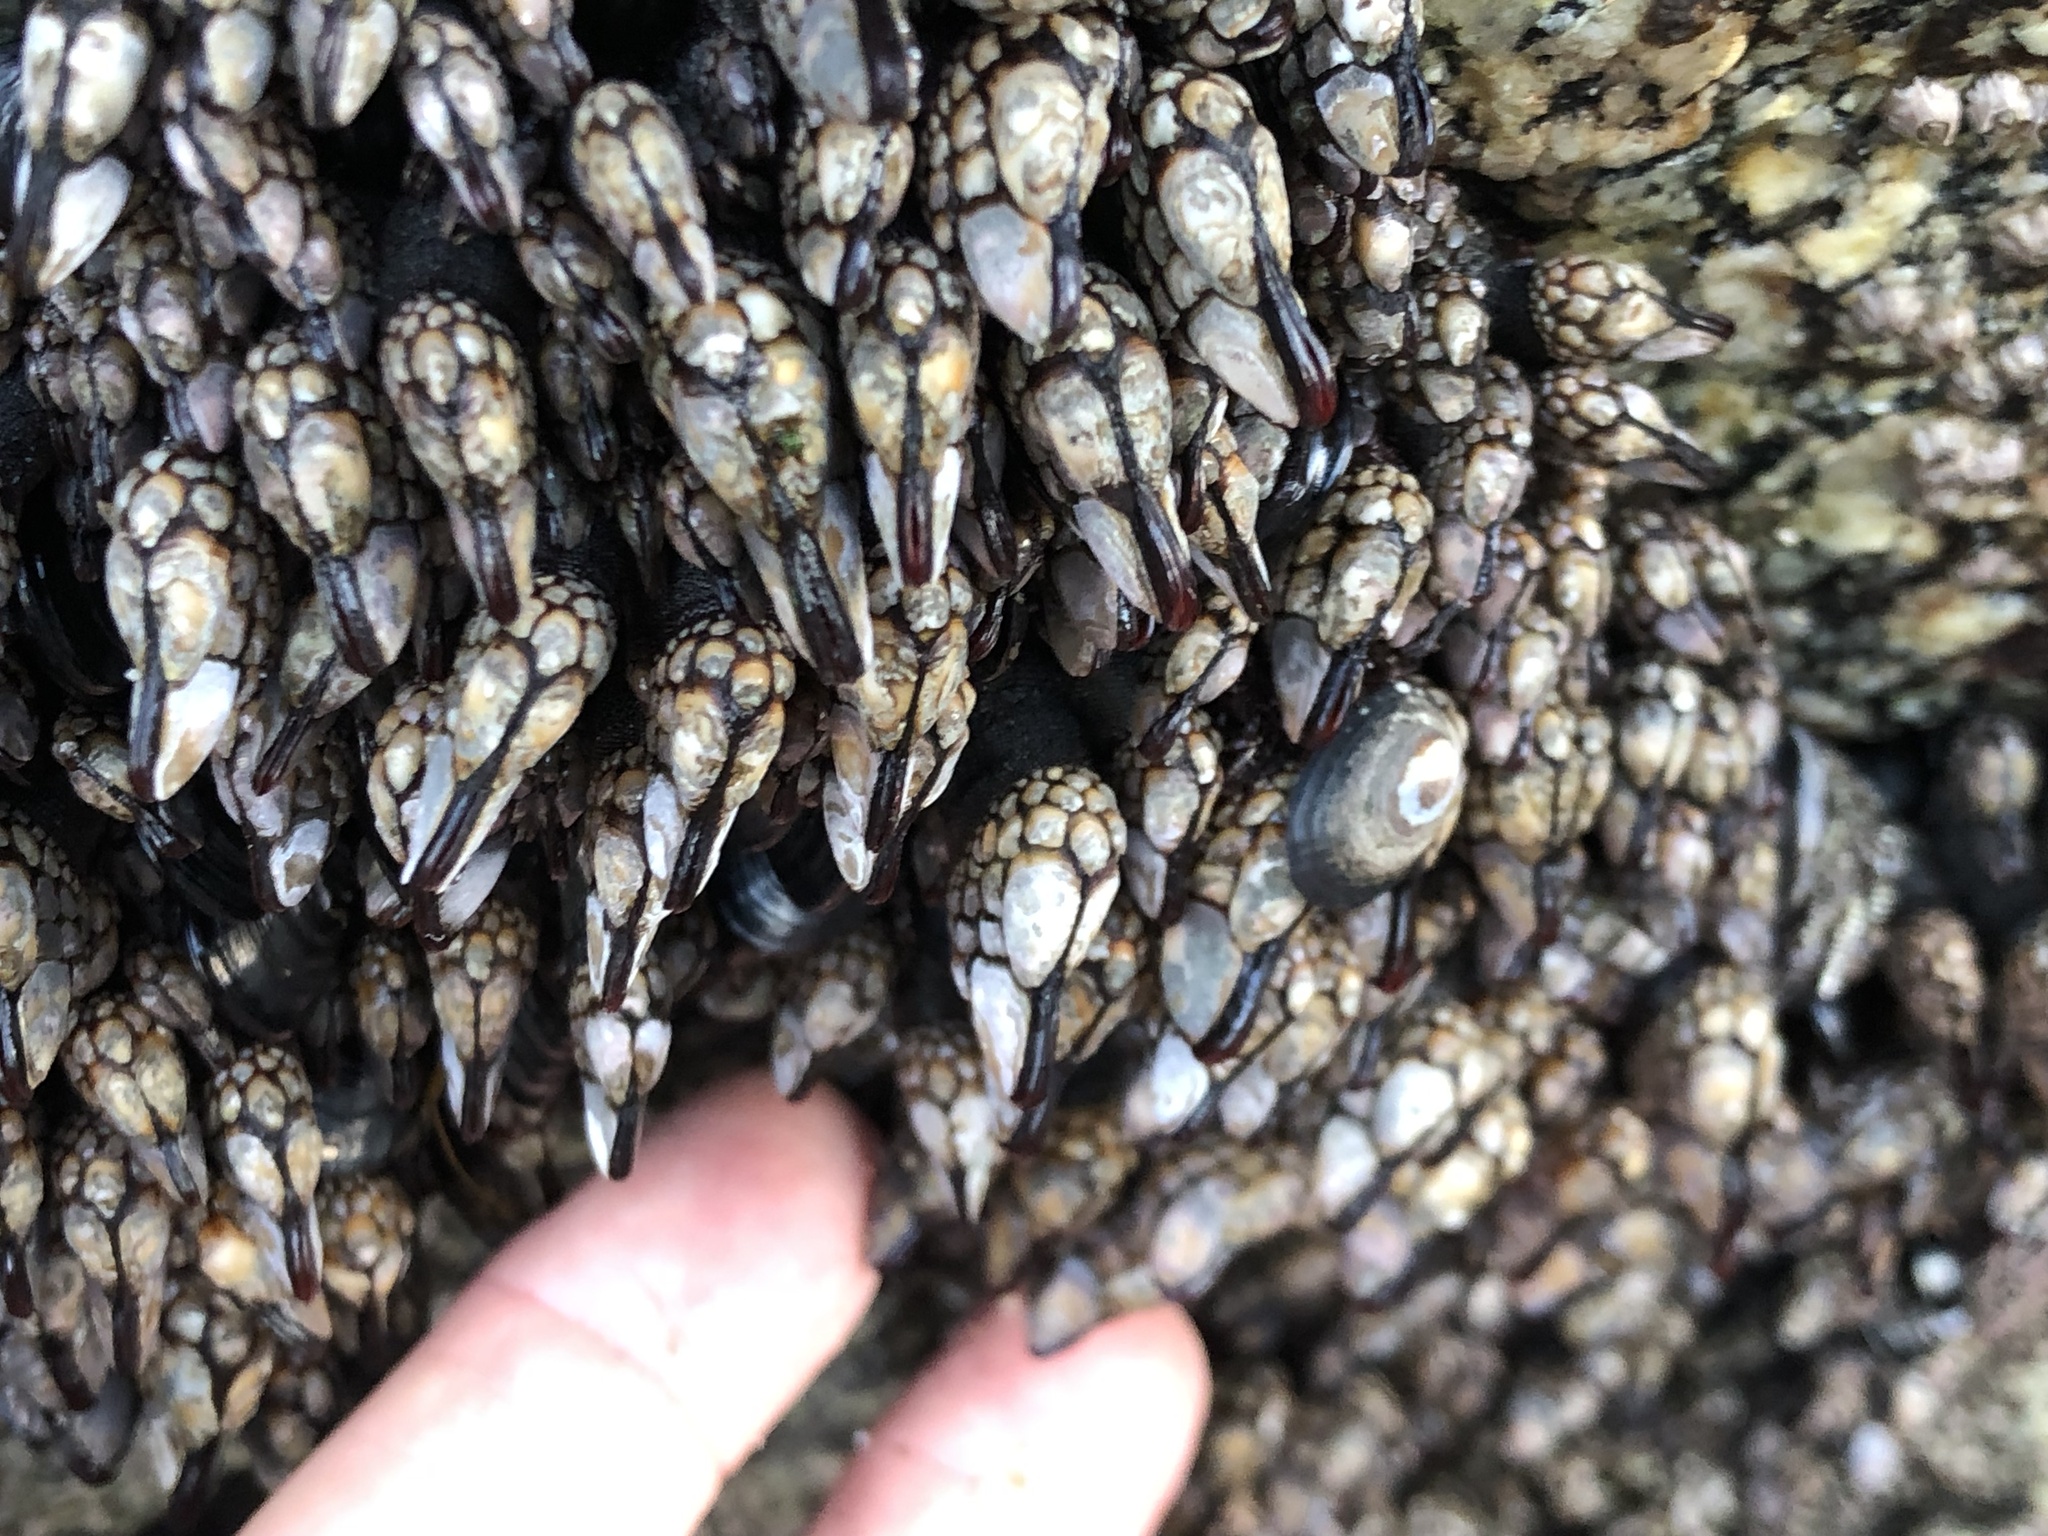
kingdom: Animalia
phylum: Arthropoda
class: Maxillopoda
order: Pedunculata
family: Pollicipedidae
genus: Pollicipes
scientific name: Pollicipes polymerus
